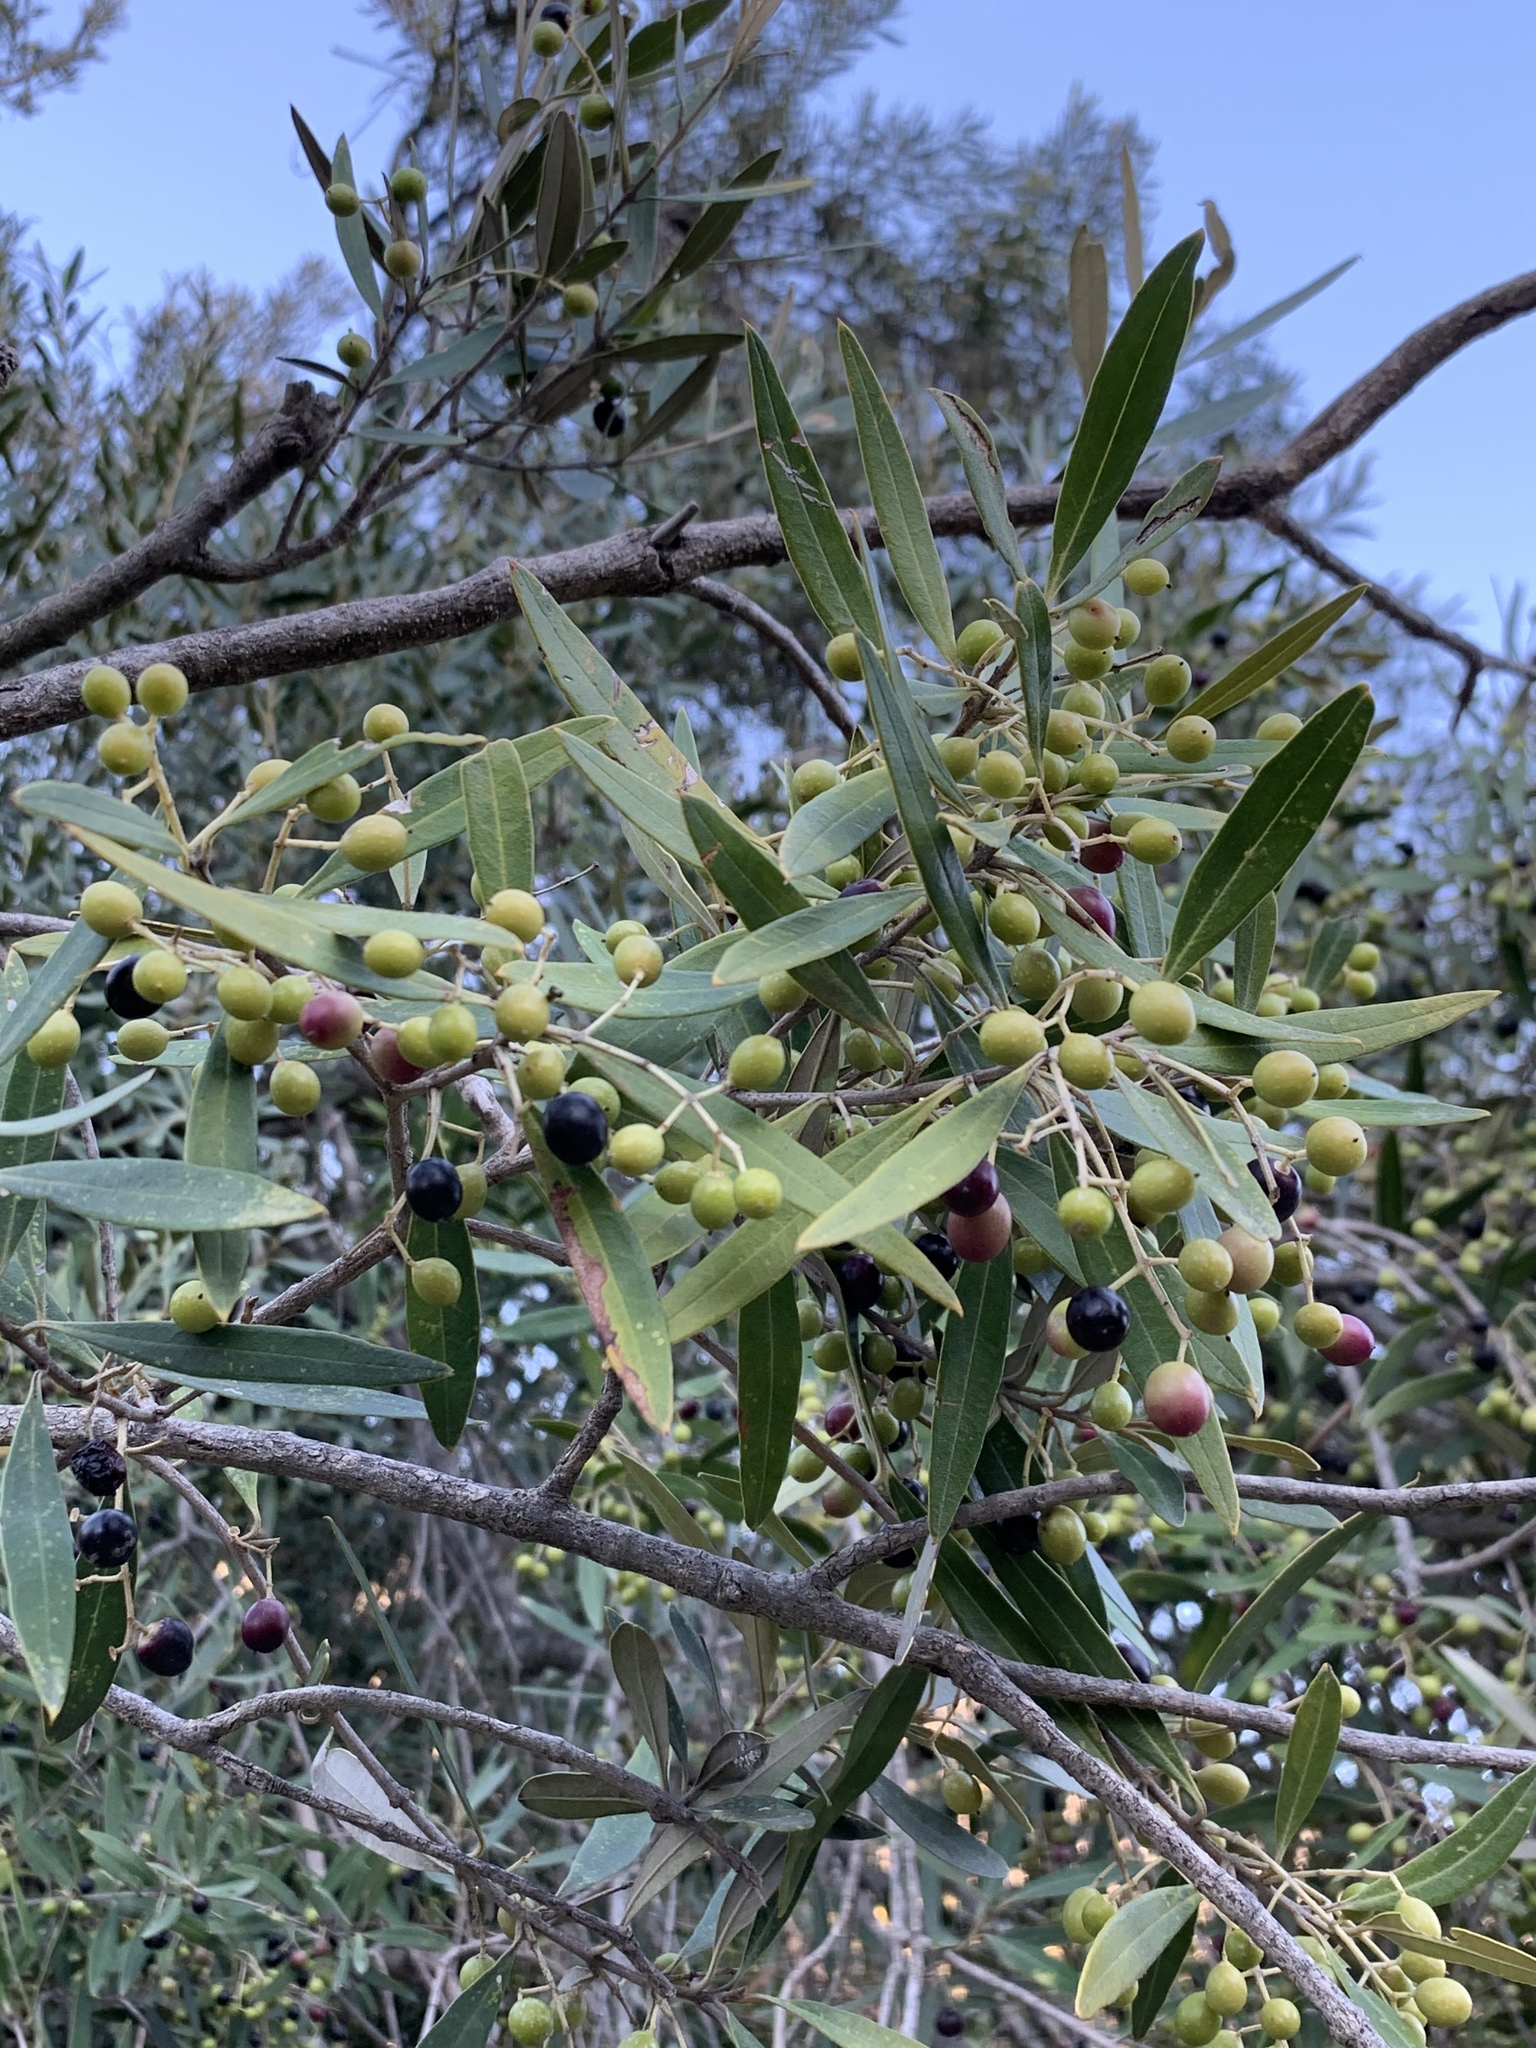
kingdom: Plantae
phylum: Tracheophyta
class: Magnoliopsida
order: Lamiales
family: Oleaceae
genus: Olea
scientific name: Olea europaea
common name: Olive
